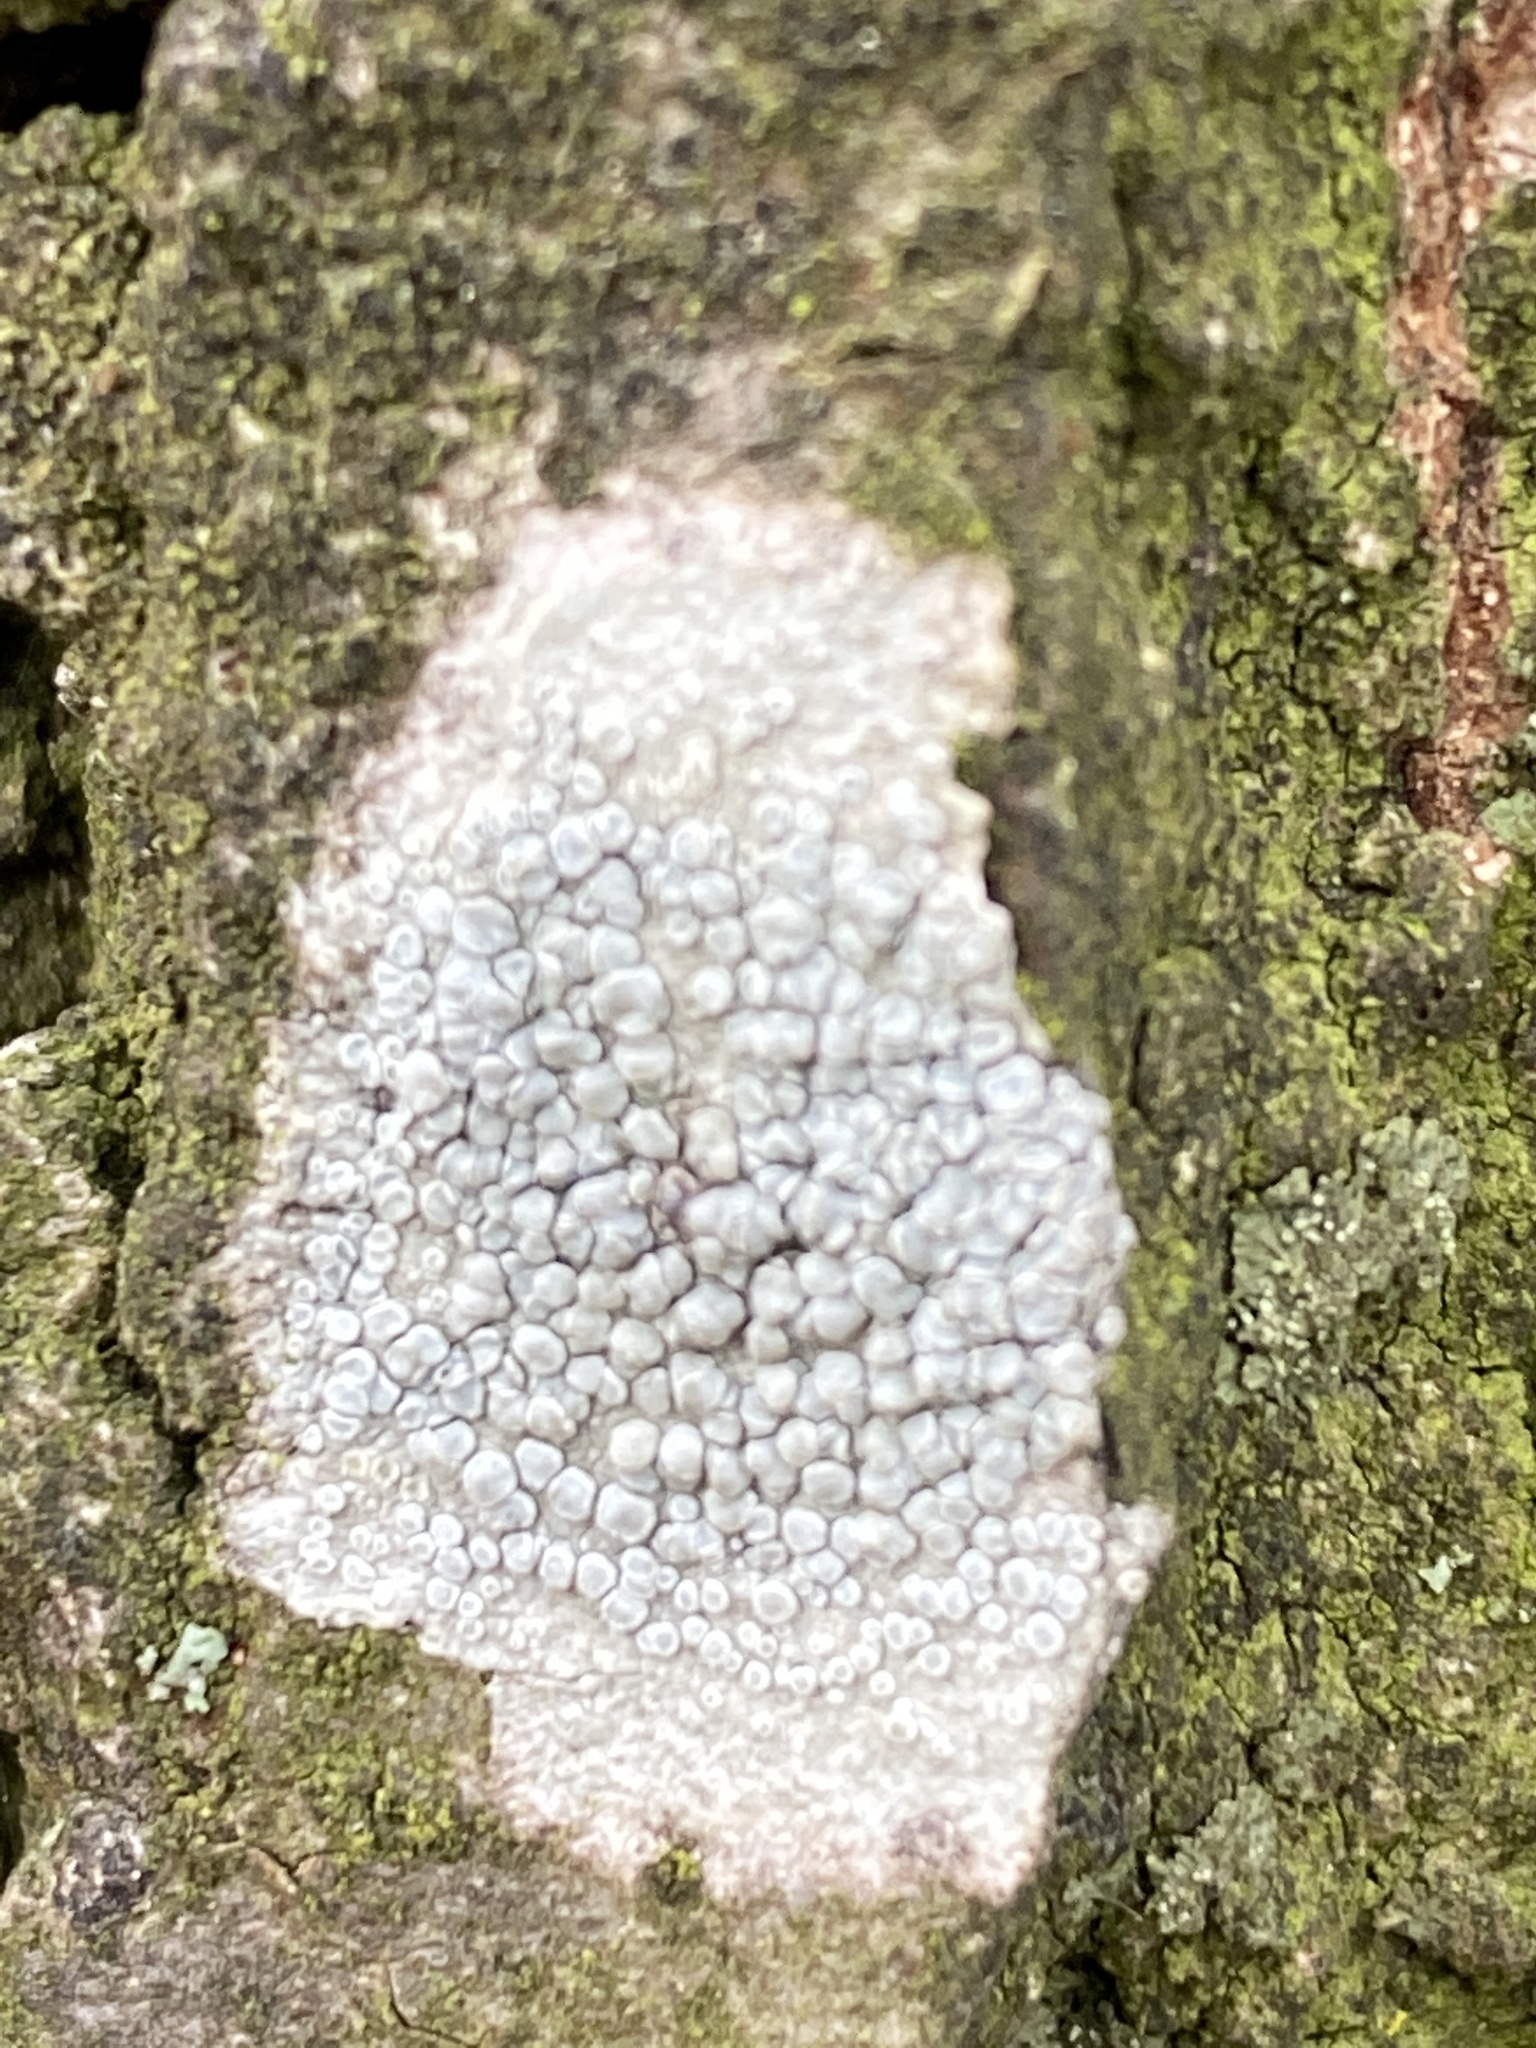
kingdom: Fungi
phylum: Ascomycota
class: Lecanoromycetes
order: Lecanorales
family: Lecanoraceae
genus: Glaucomaria
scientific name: Glaucomaria carpinea
